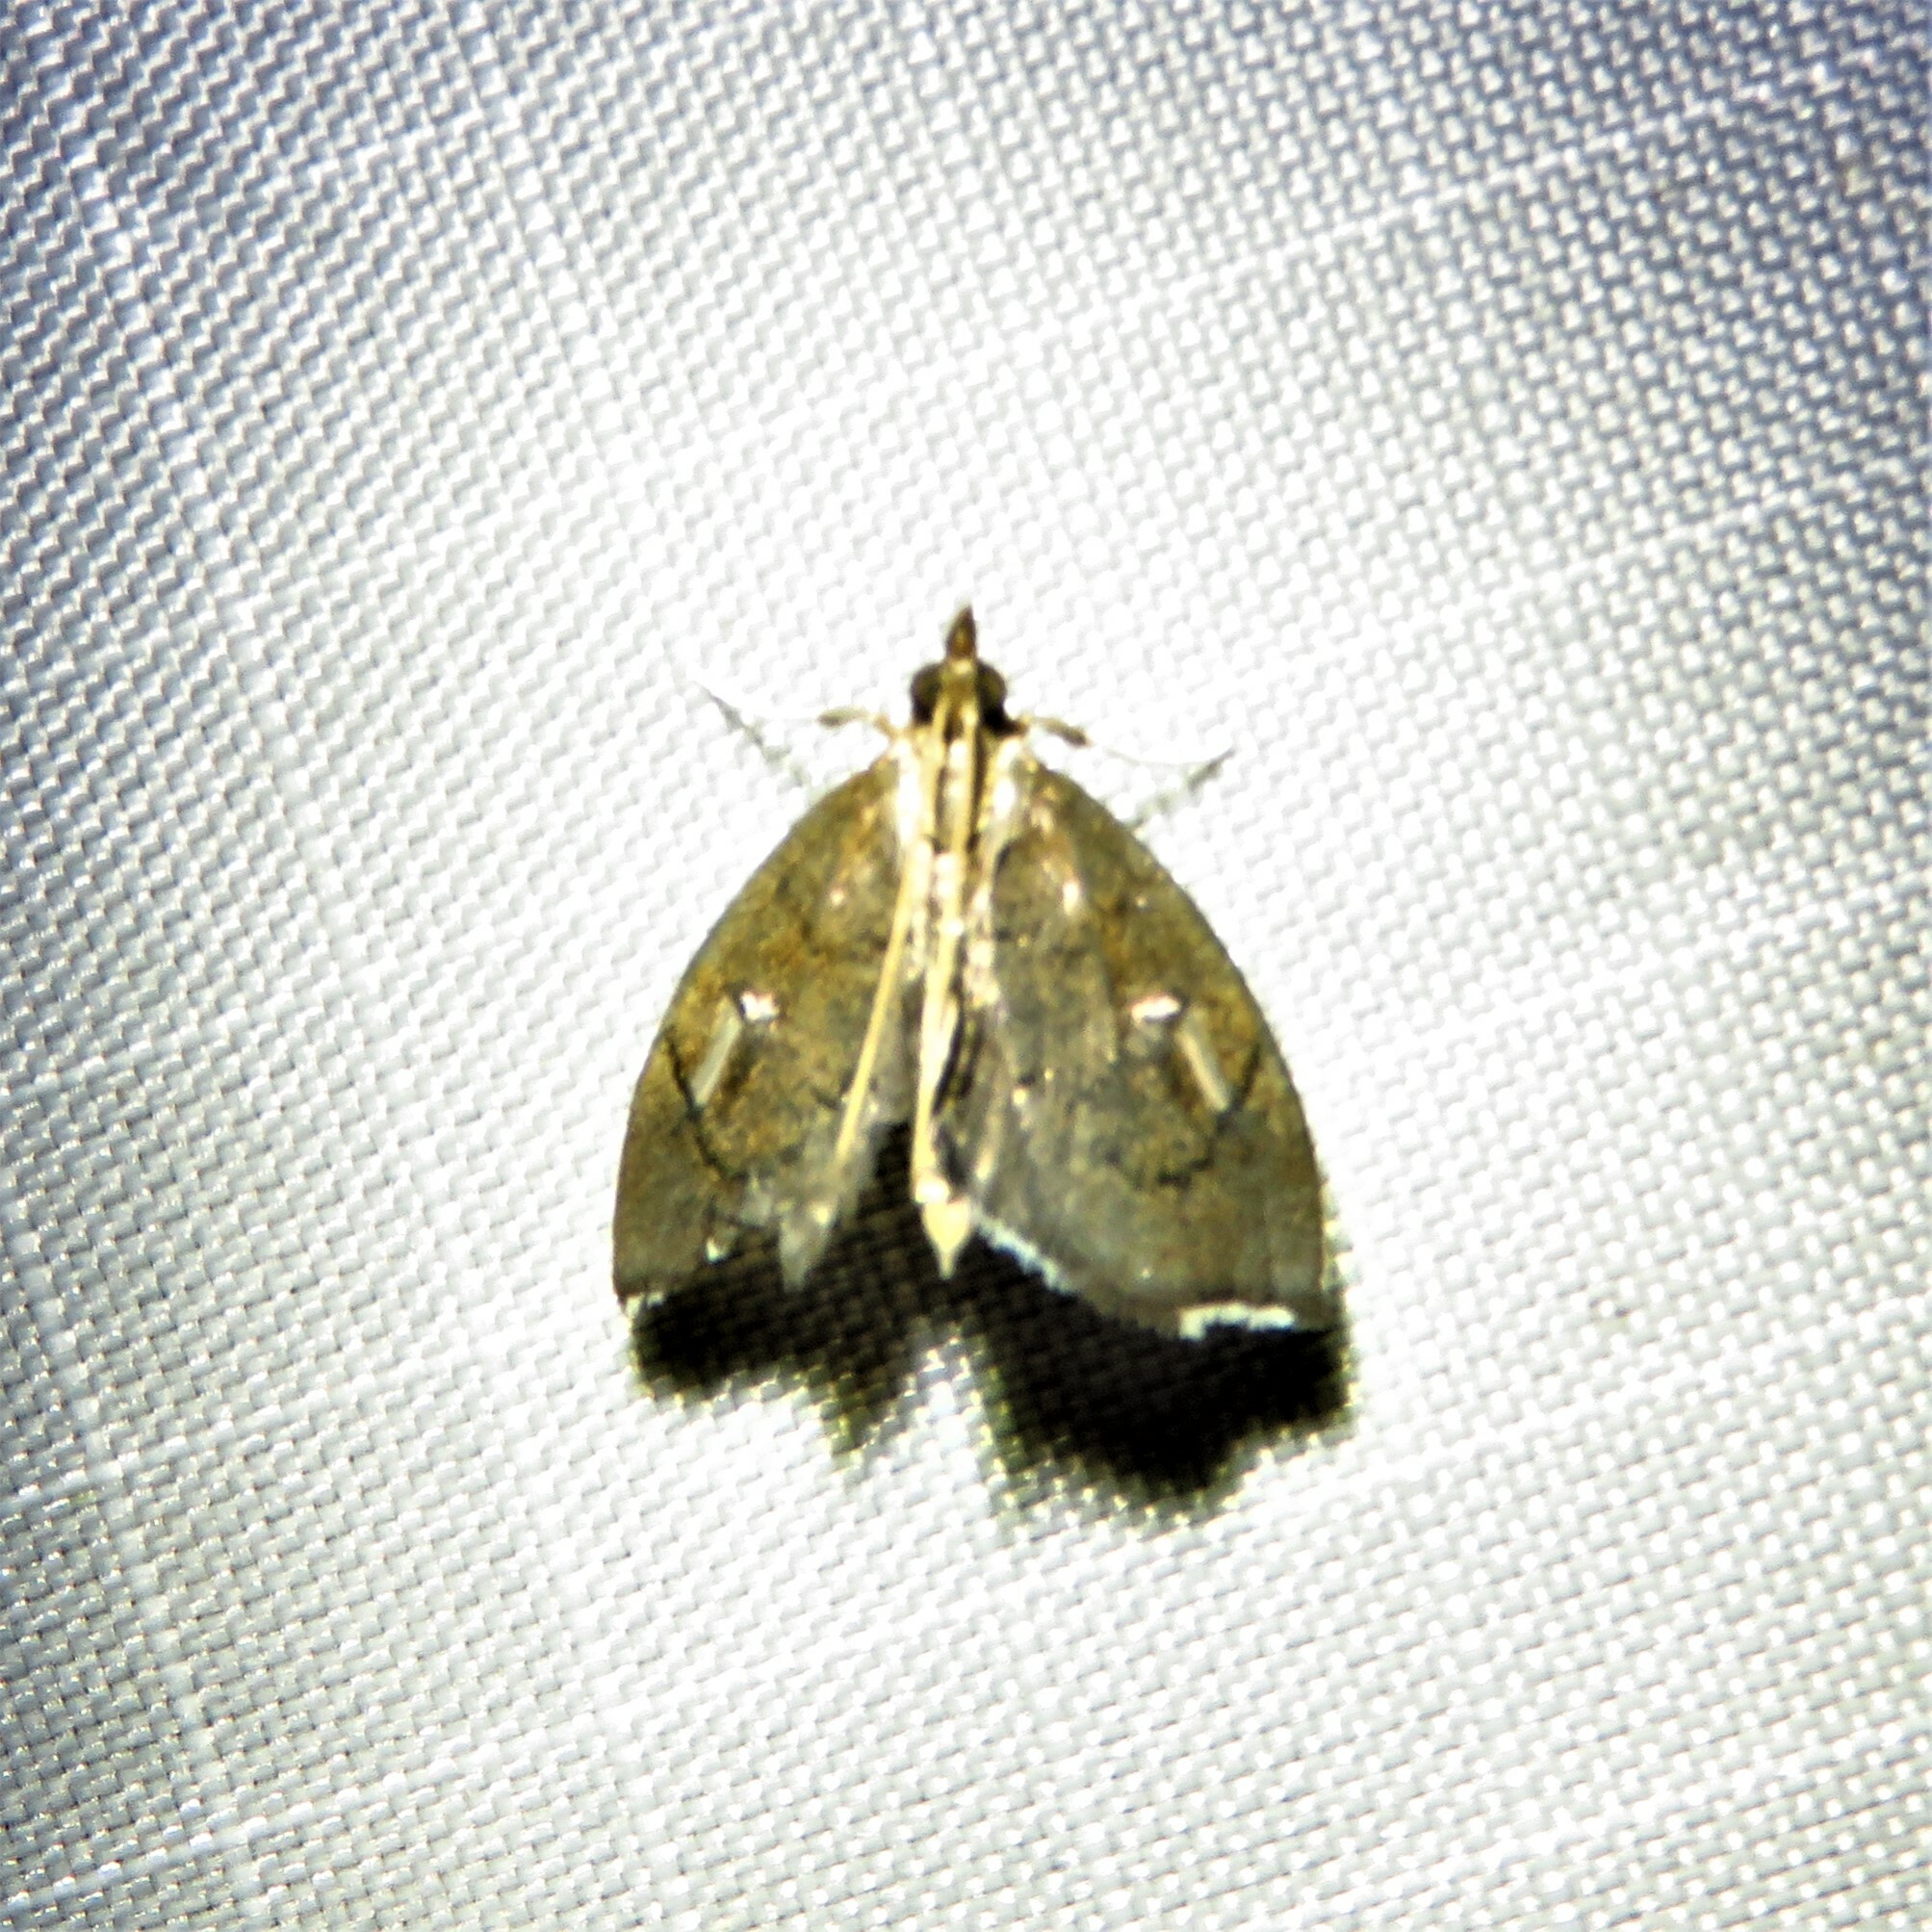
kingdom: Animalia
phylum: Arthropoda
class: Insecta
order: Lepidoptera
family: Crambidae
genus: Perispasta
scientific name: Perispasta caeculalis
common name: Titian peale's moth
